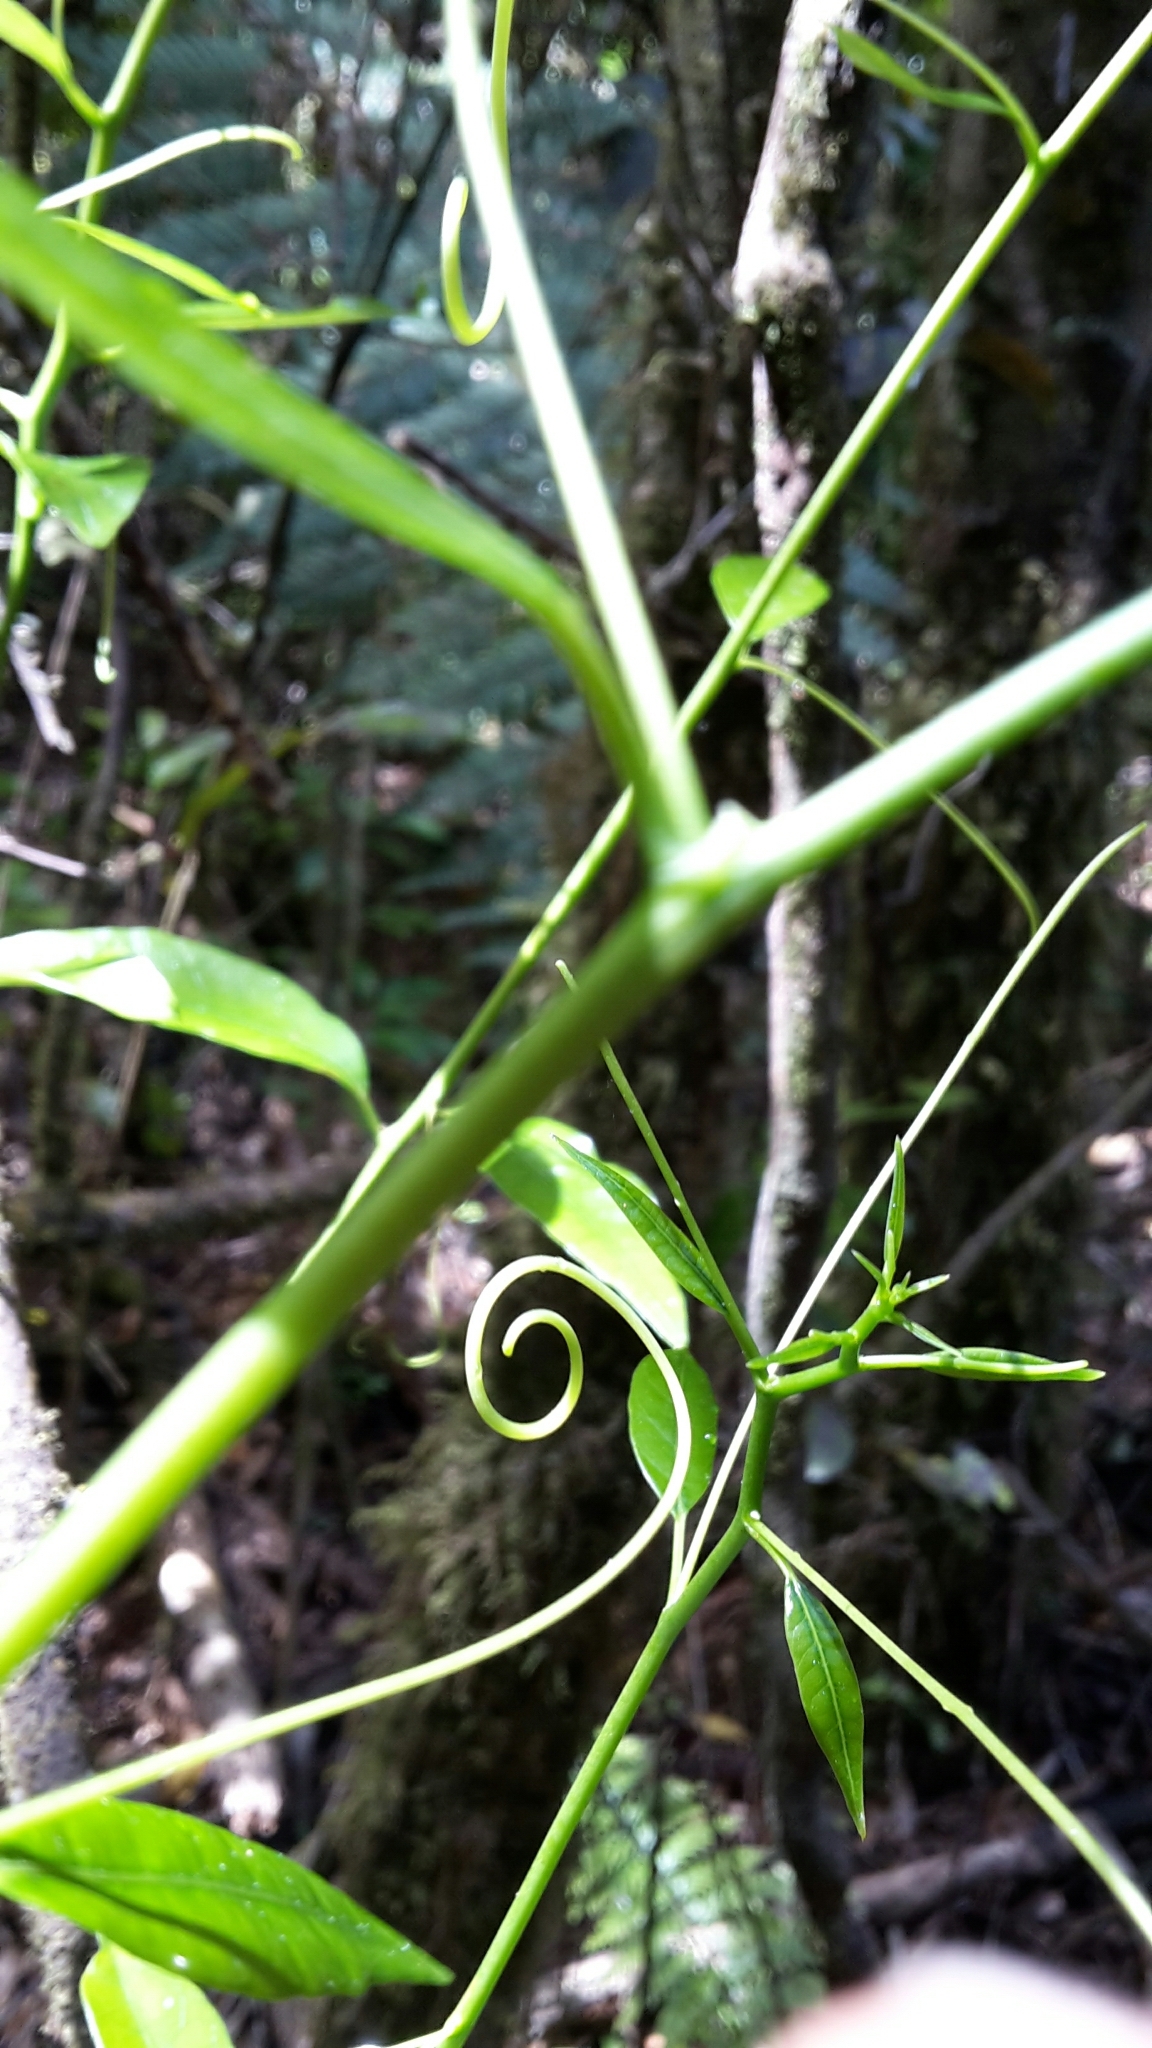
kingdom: Plantae
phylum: Tracheophyta
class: Magnoliopsida
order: Malpighiales
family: Passifloraceae
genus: Passiflora
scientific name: Passiflora tetrandra
